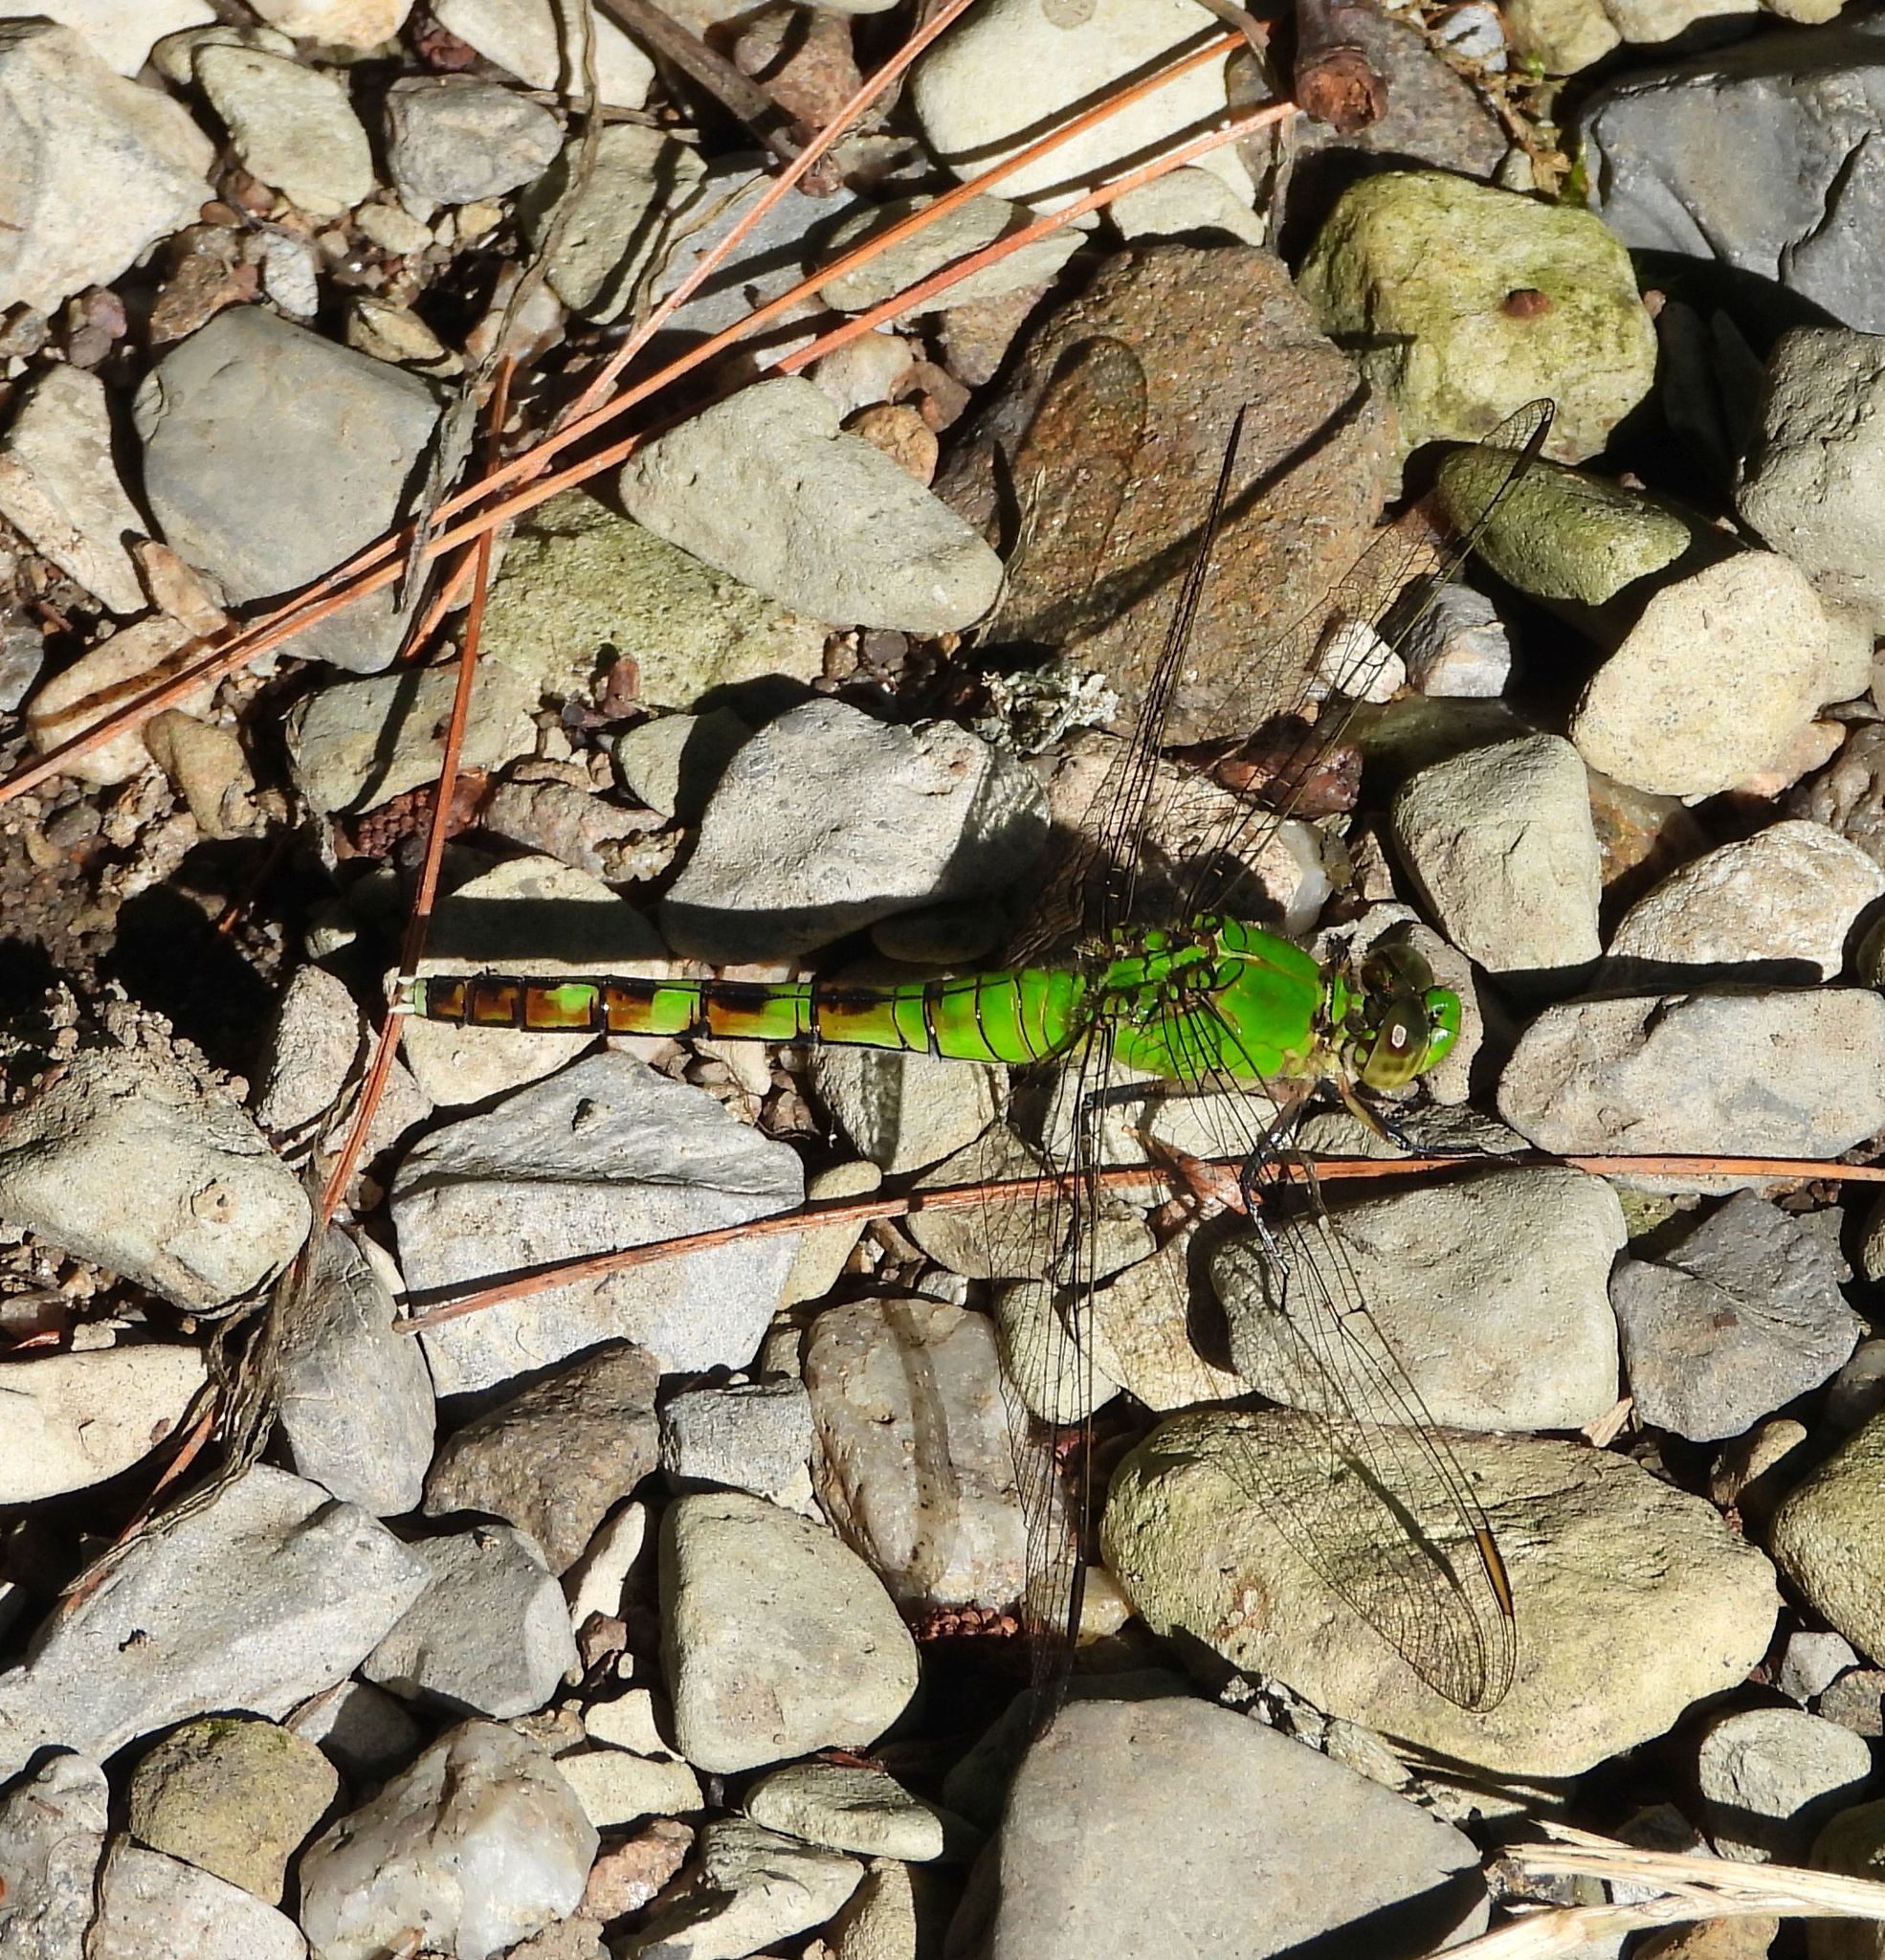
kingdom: Animalia
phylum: Arthropoda
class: Insecta
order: Odonata
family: Libellulidae
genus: Erythemis
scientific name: Erythemis simplicicollis
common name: Eastern pondhawk
